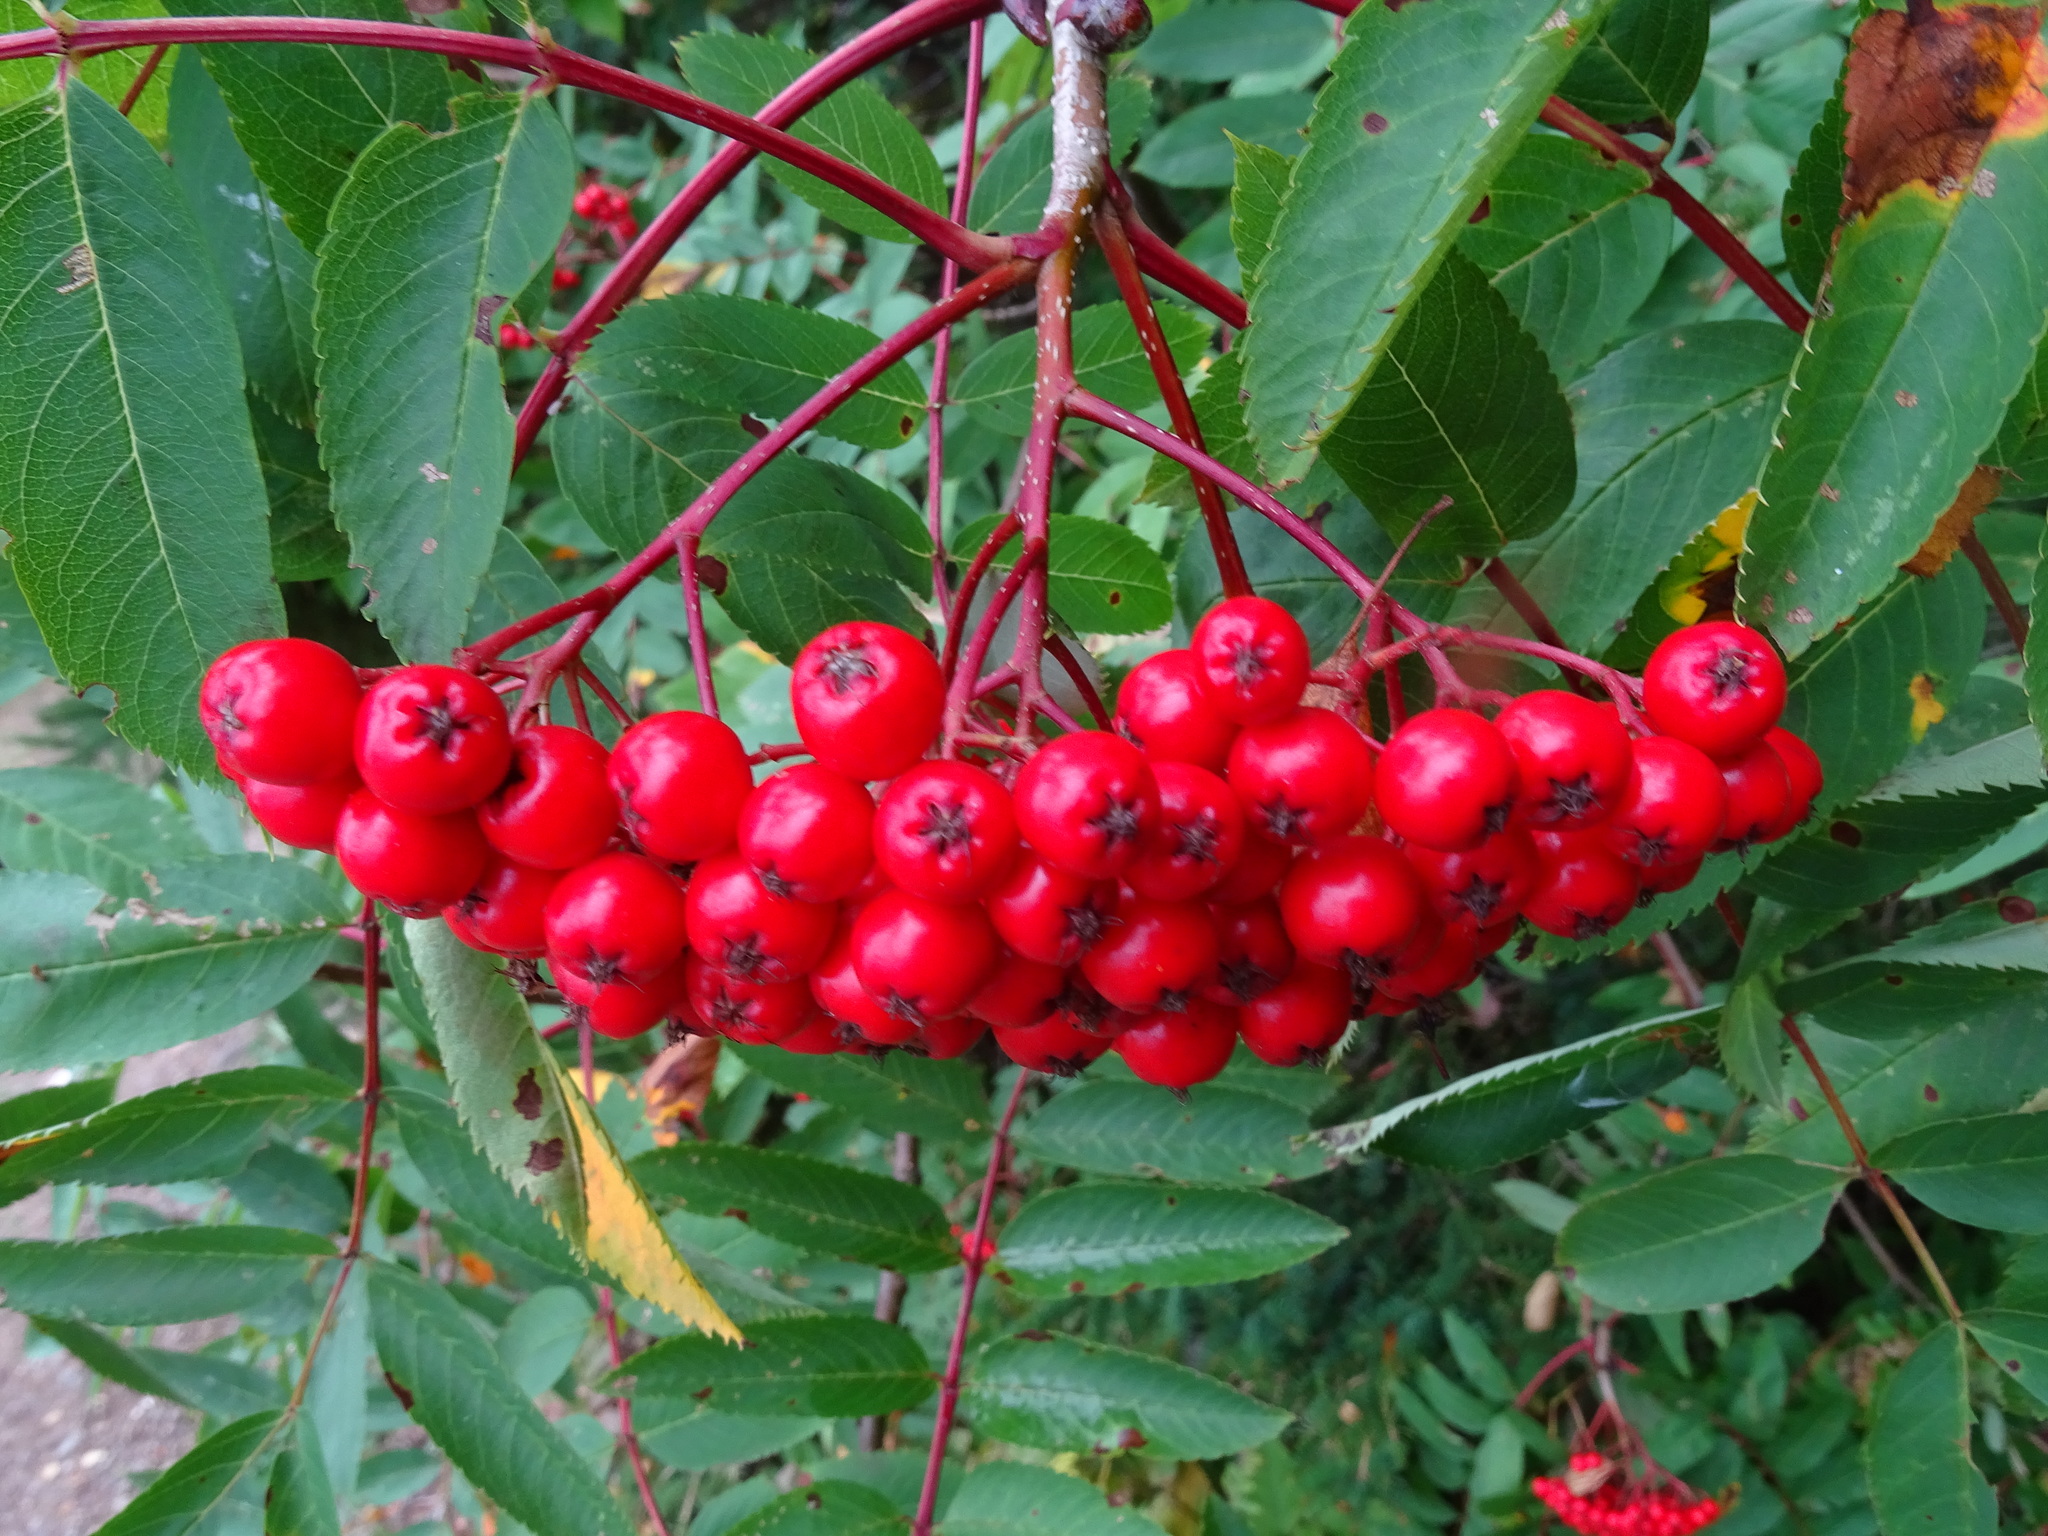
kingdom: Plantae
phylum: Tracheophyta
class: Magnoliopsida
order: Rosales
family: Rosaceae
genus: Sorbus
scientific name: Sorbus americana
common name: American mountain-ash
